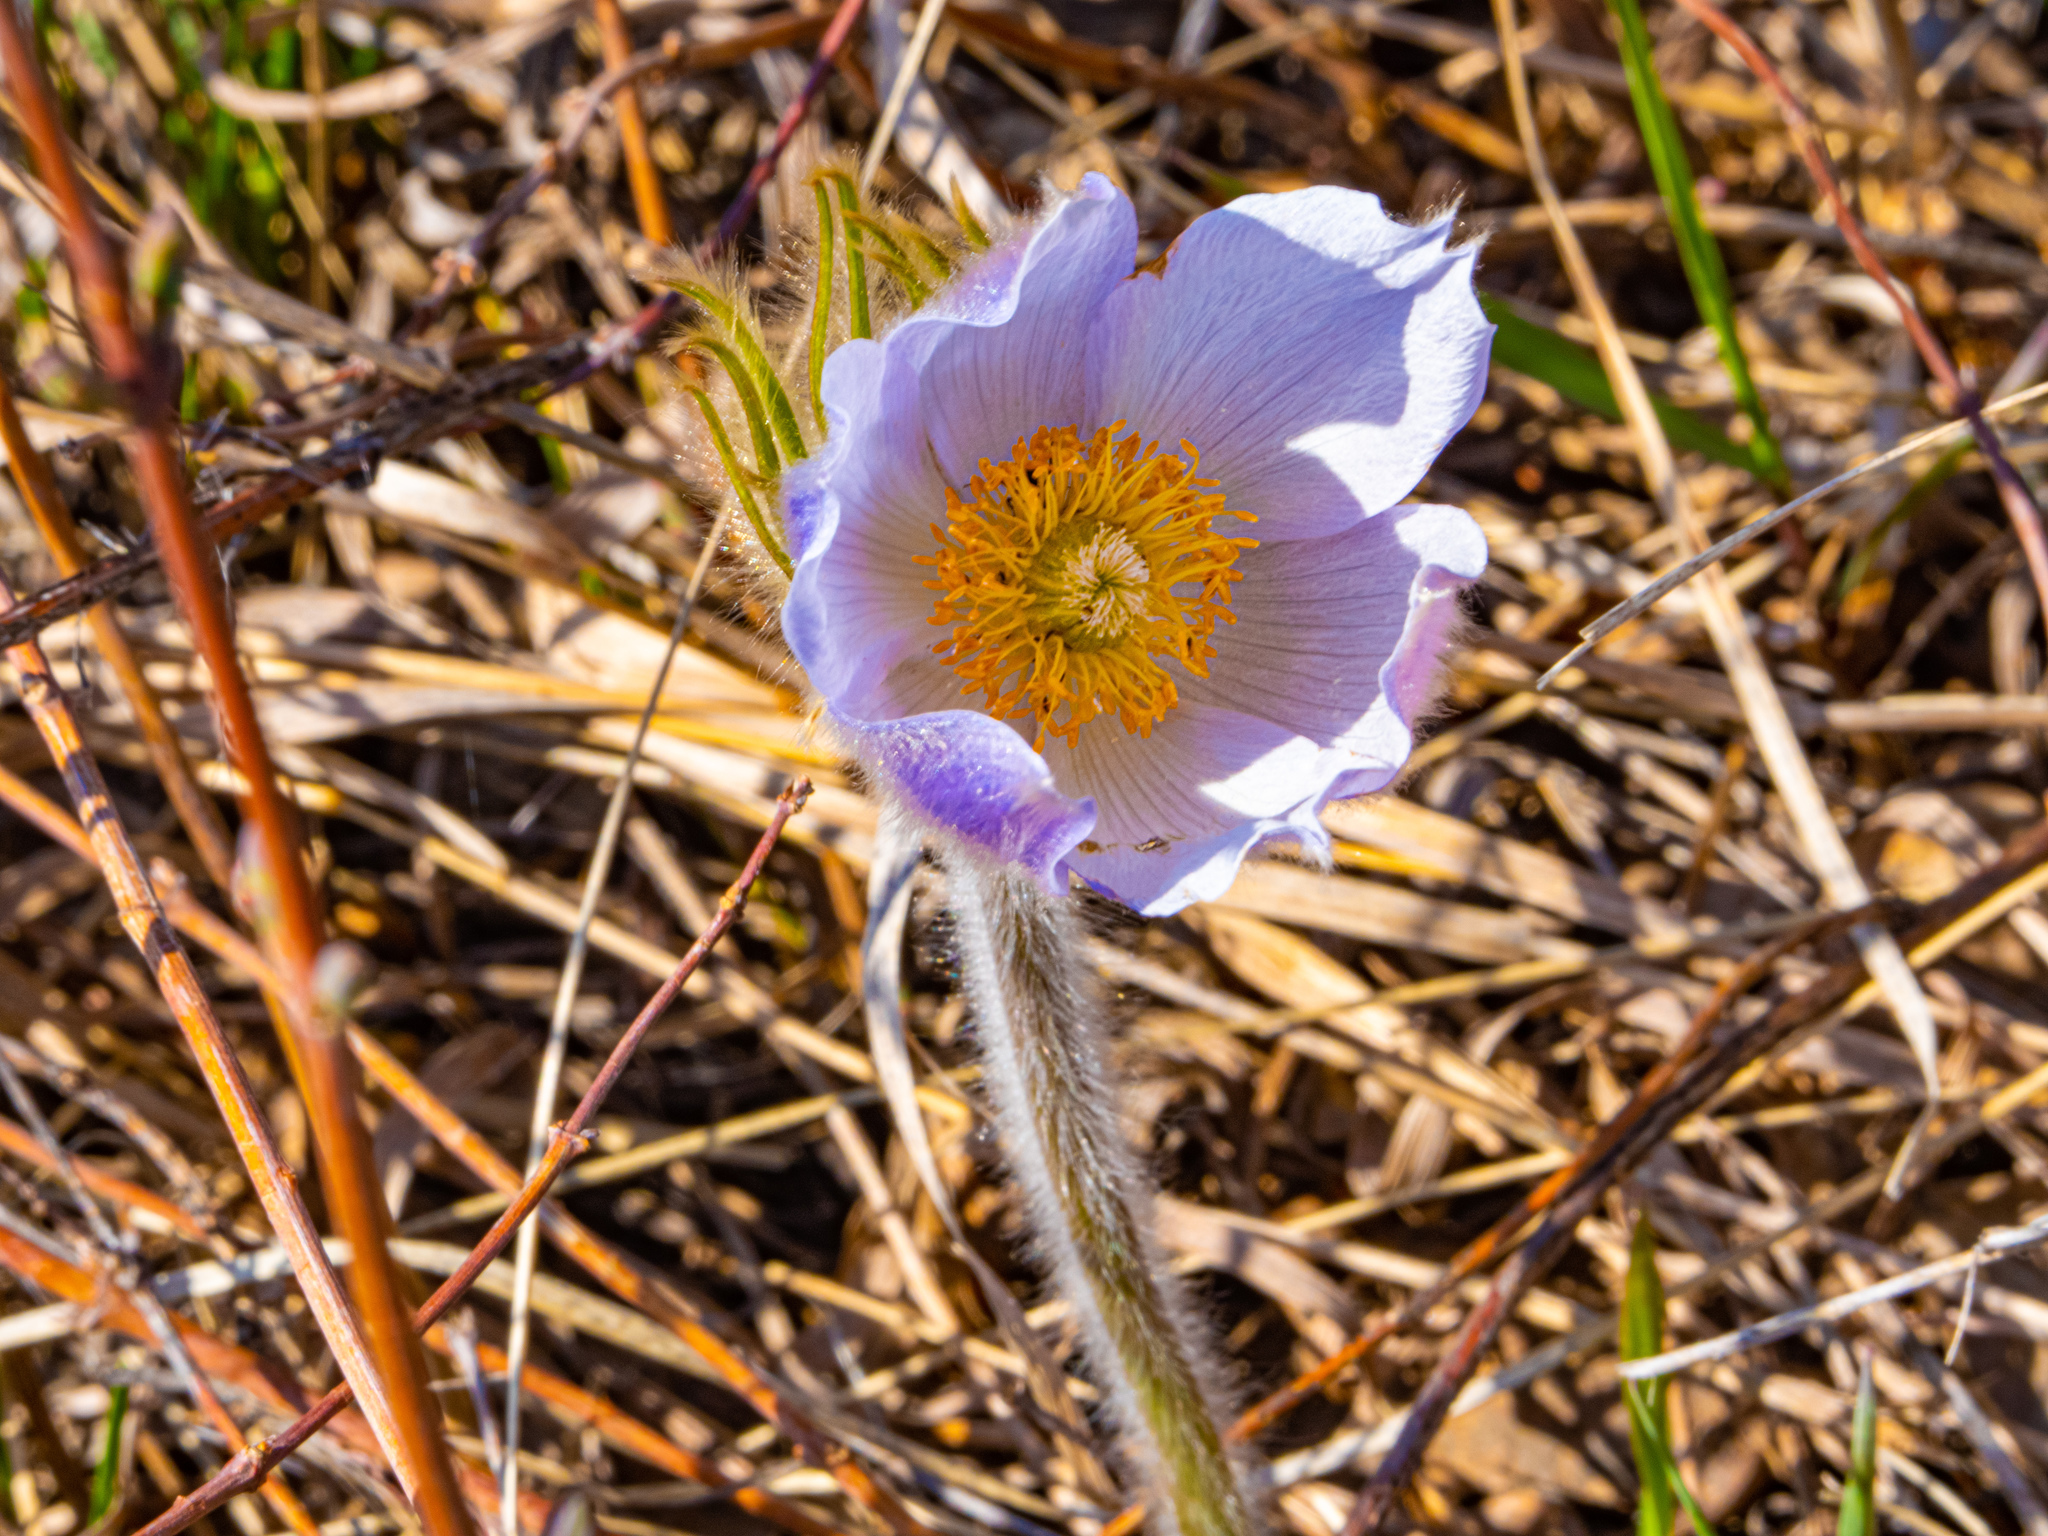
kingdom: Plantae
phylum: Tracheophyta
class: Magnoliopsida
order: Ranunculales
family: Ranunculaceae
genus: Pulsatilla
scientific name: Pulsatilla nuttalliana
